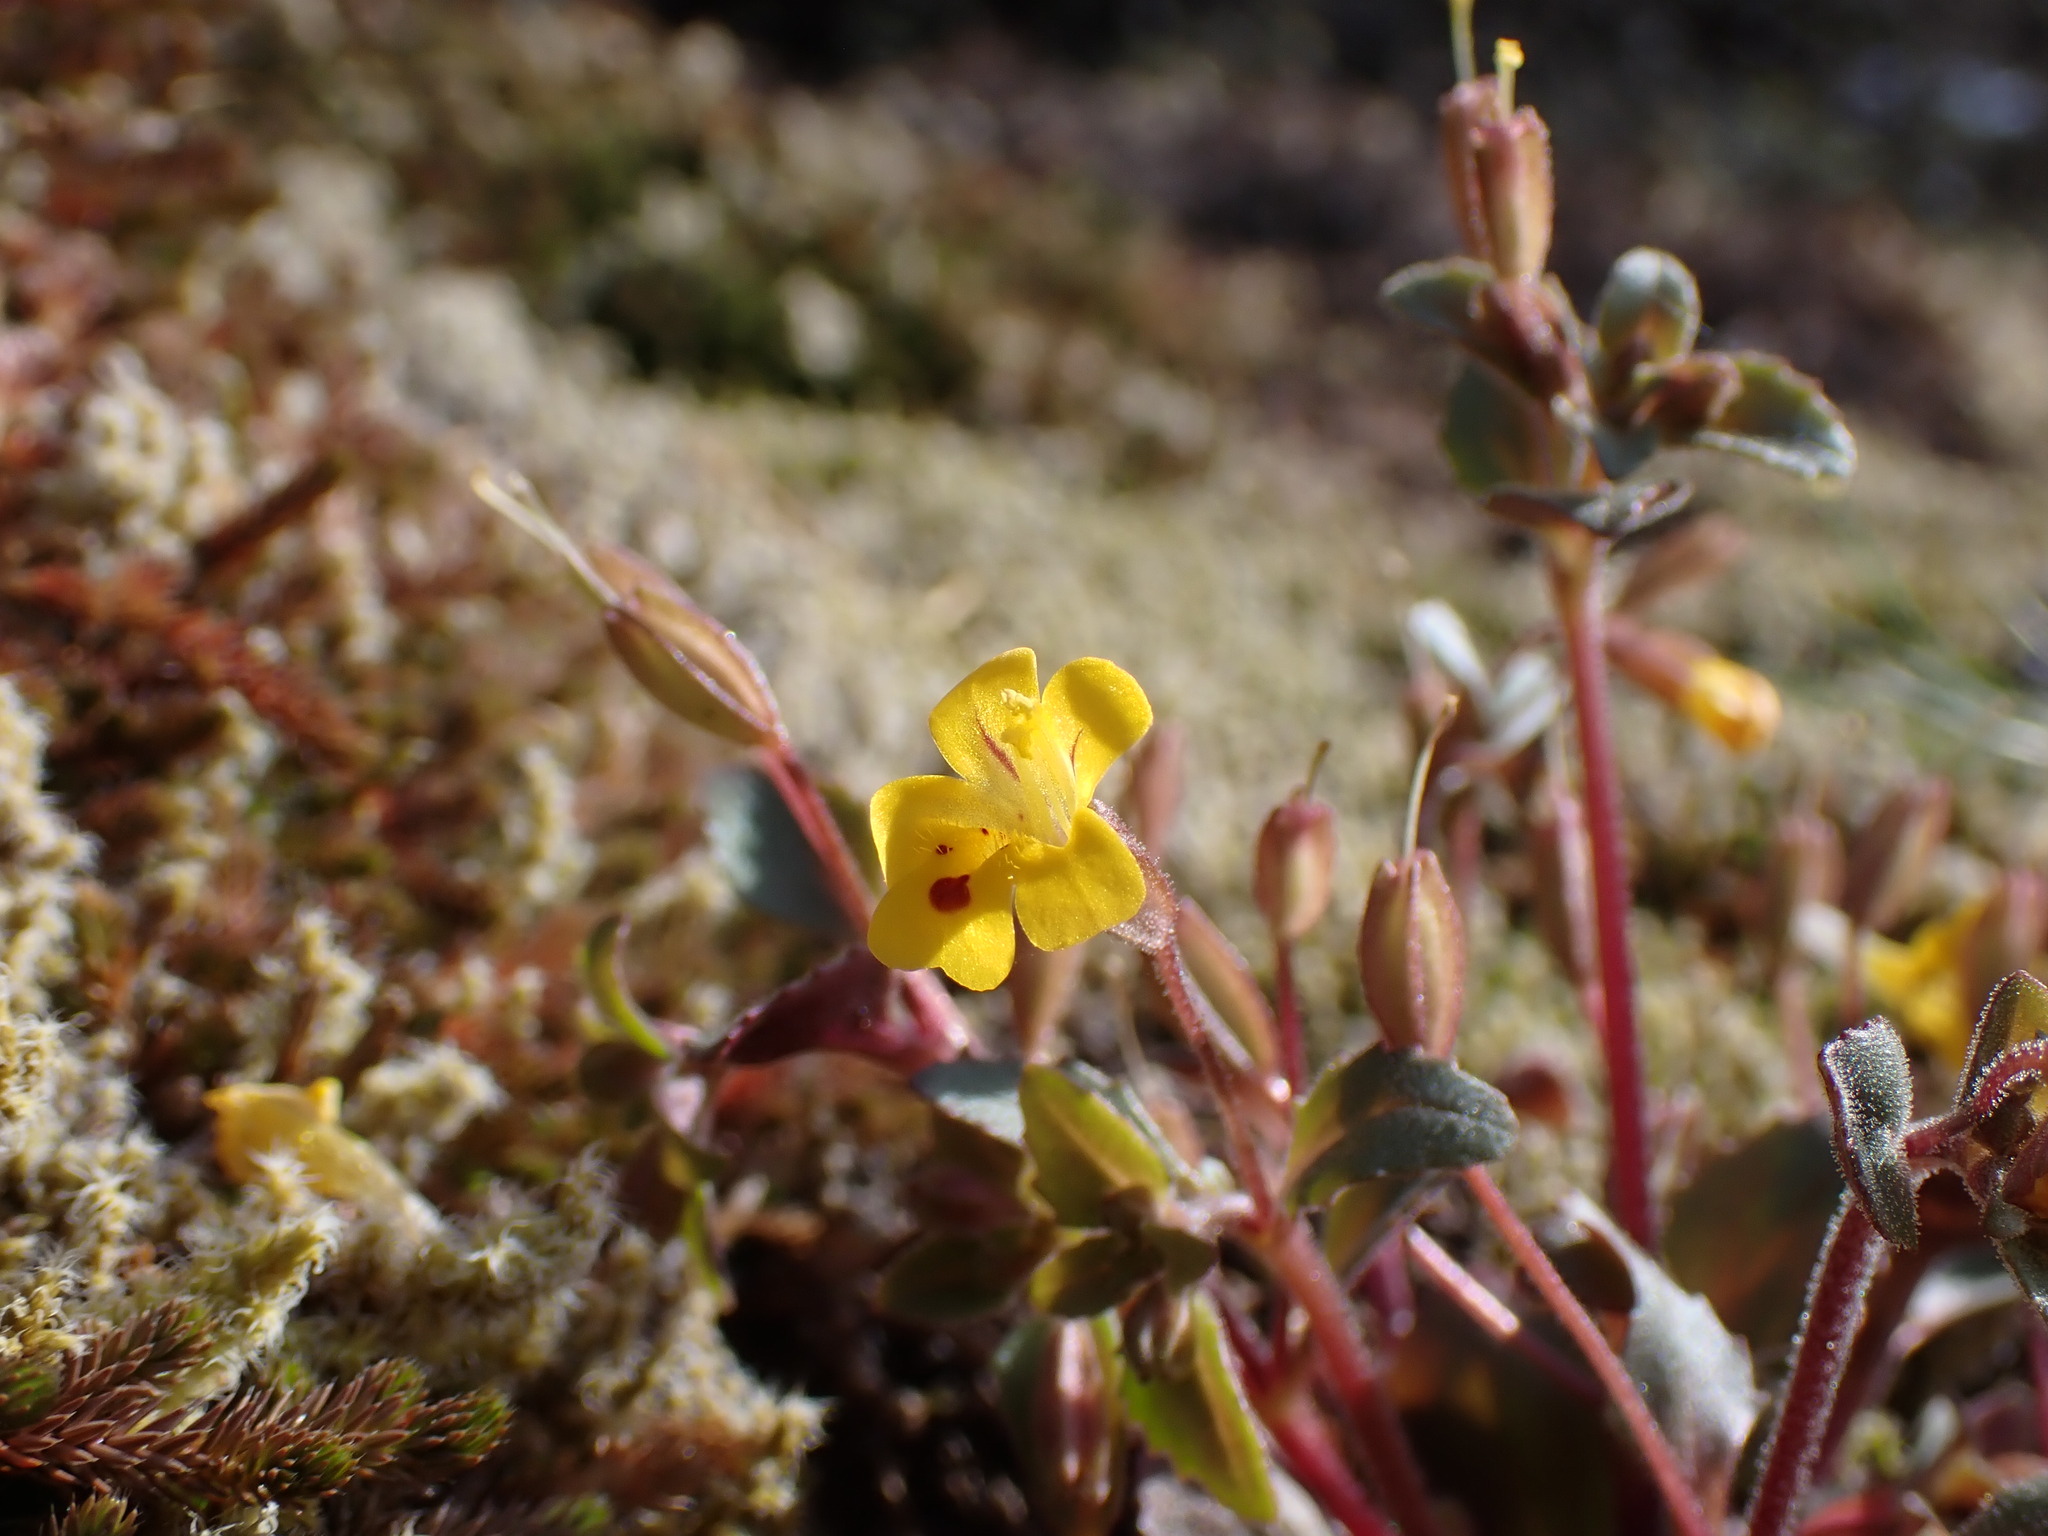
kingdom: Plantae
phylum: Tracheophyta
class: Magnoliopsida
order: Lamiales
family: Phrymaceae
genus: Erythranthe
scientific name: Erythranthe alsinoides
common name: Chickweed monkeyflower
